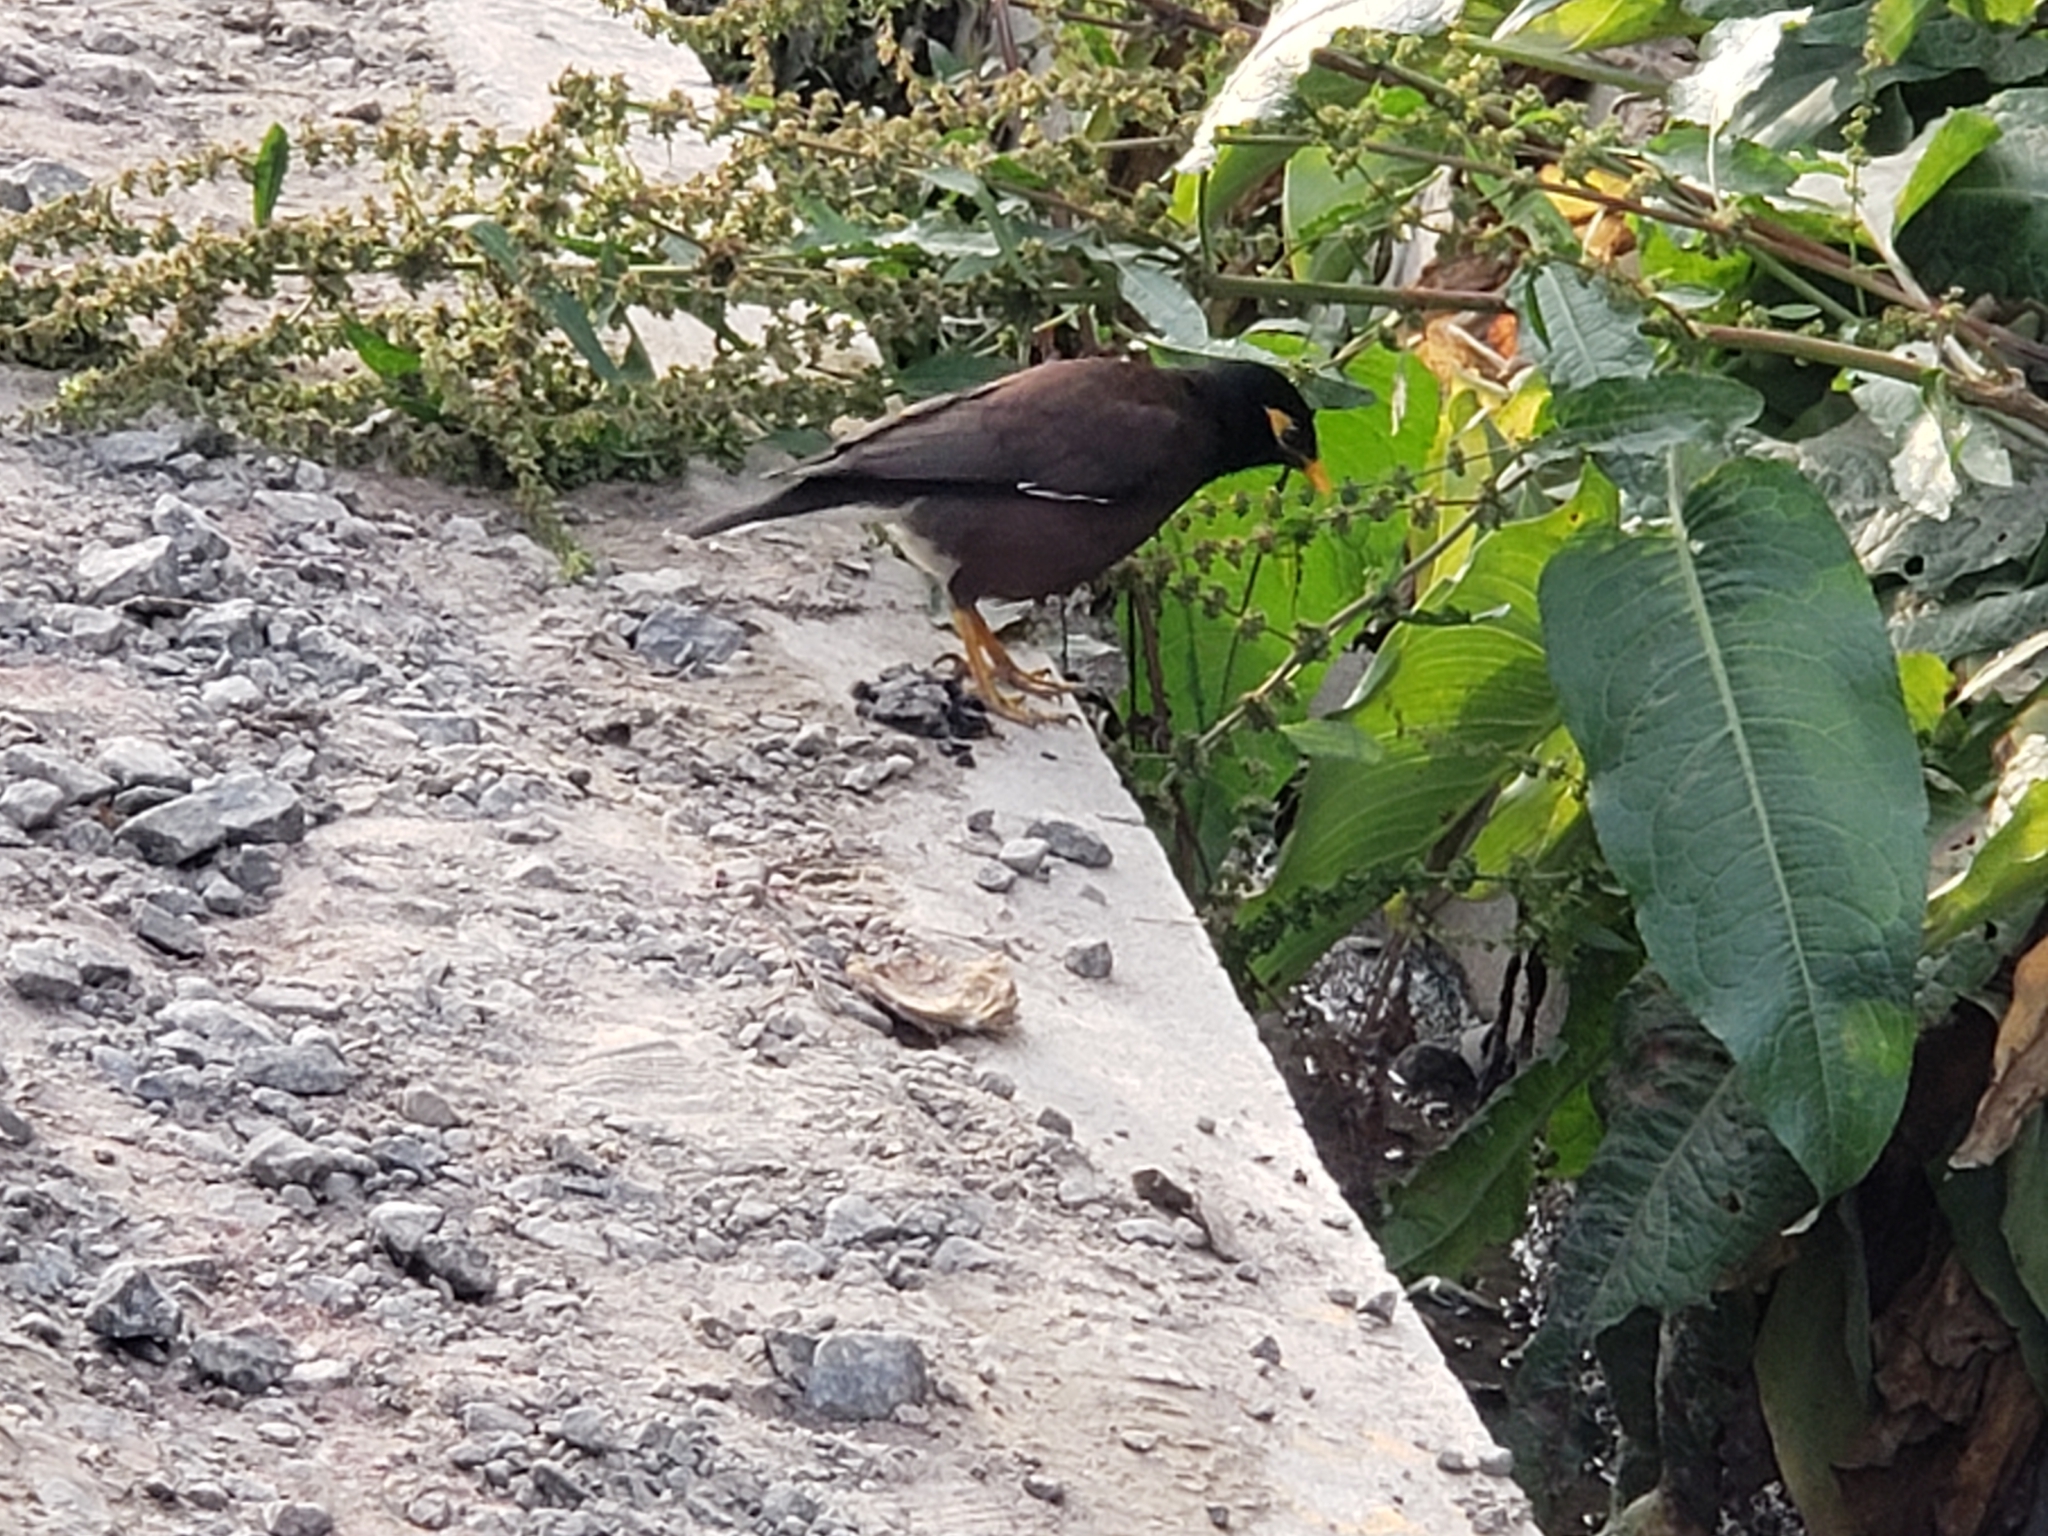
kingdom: Animalia
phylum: Chordata
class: Aves
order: Passeriformes
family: Sturnidae
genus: Acridotheres
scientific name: Acridotheres tristis
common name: Common myna
